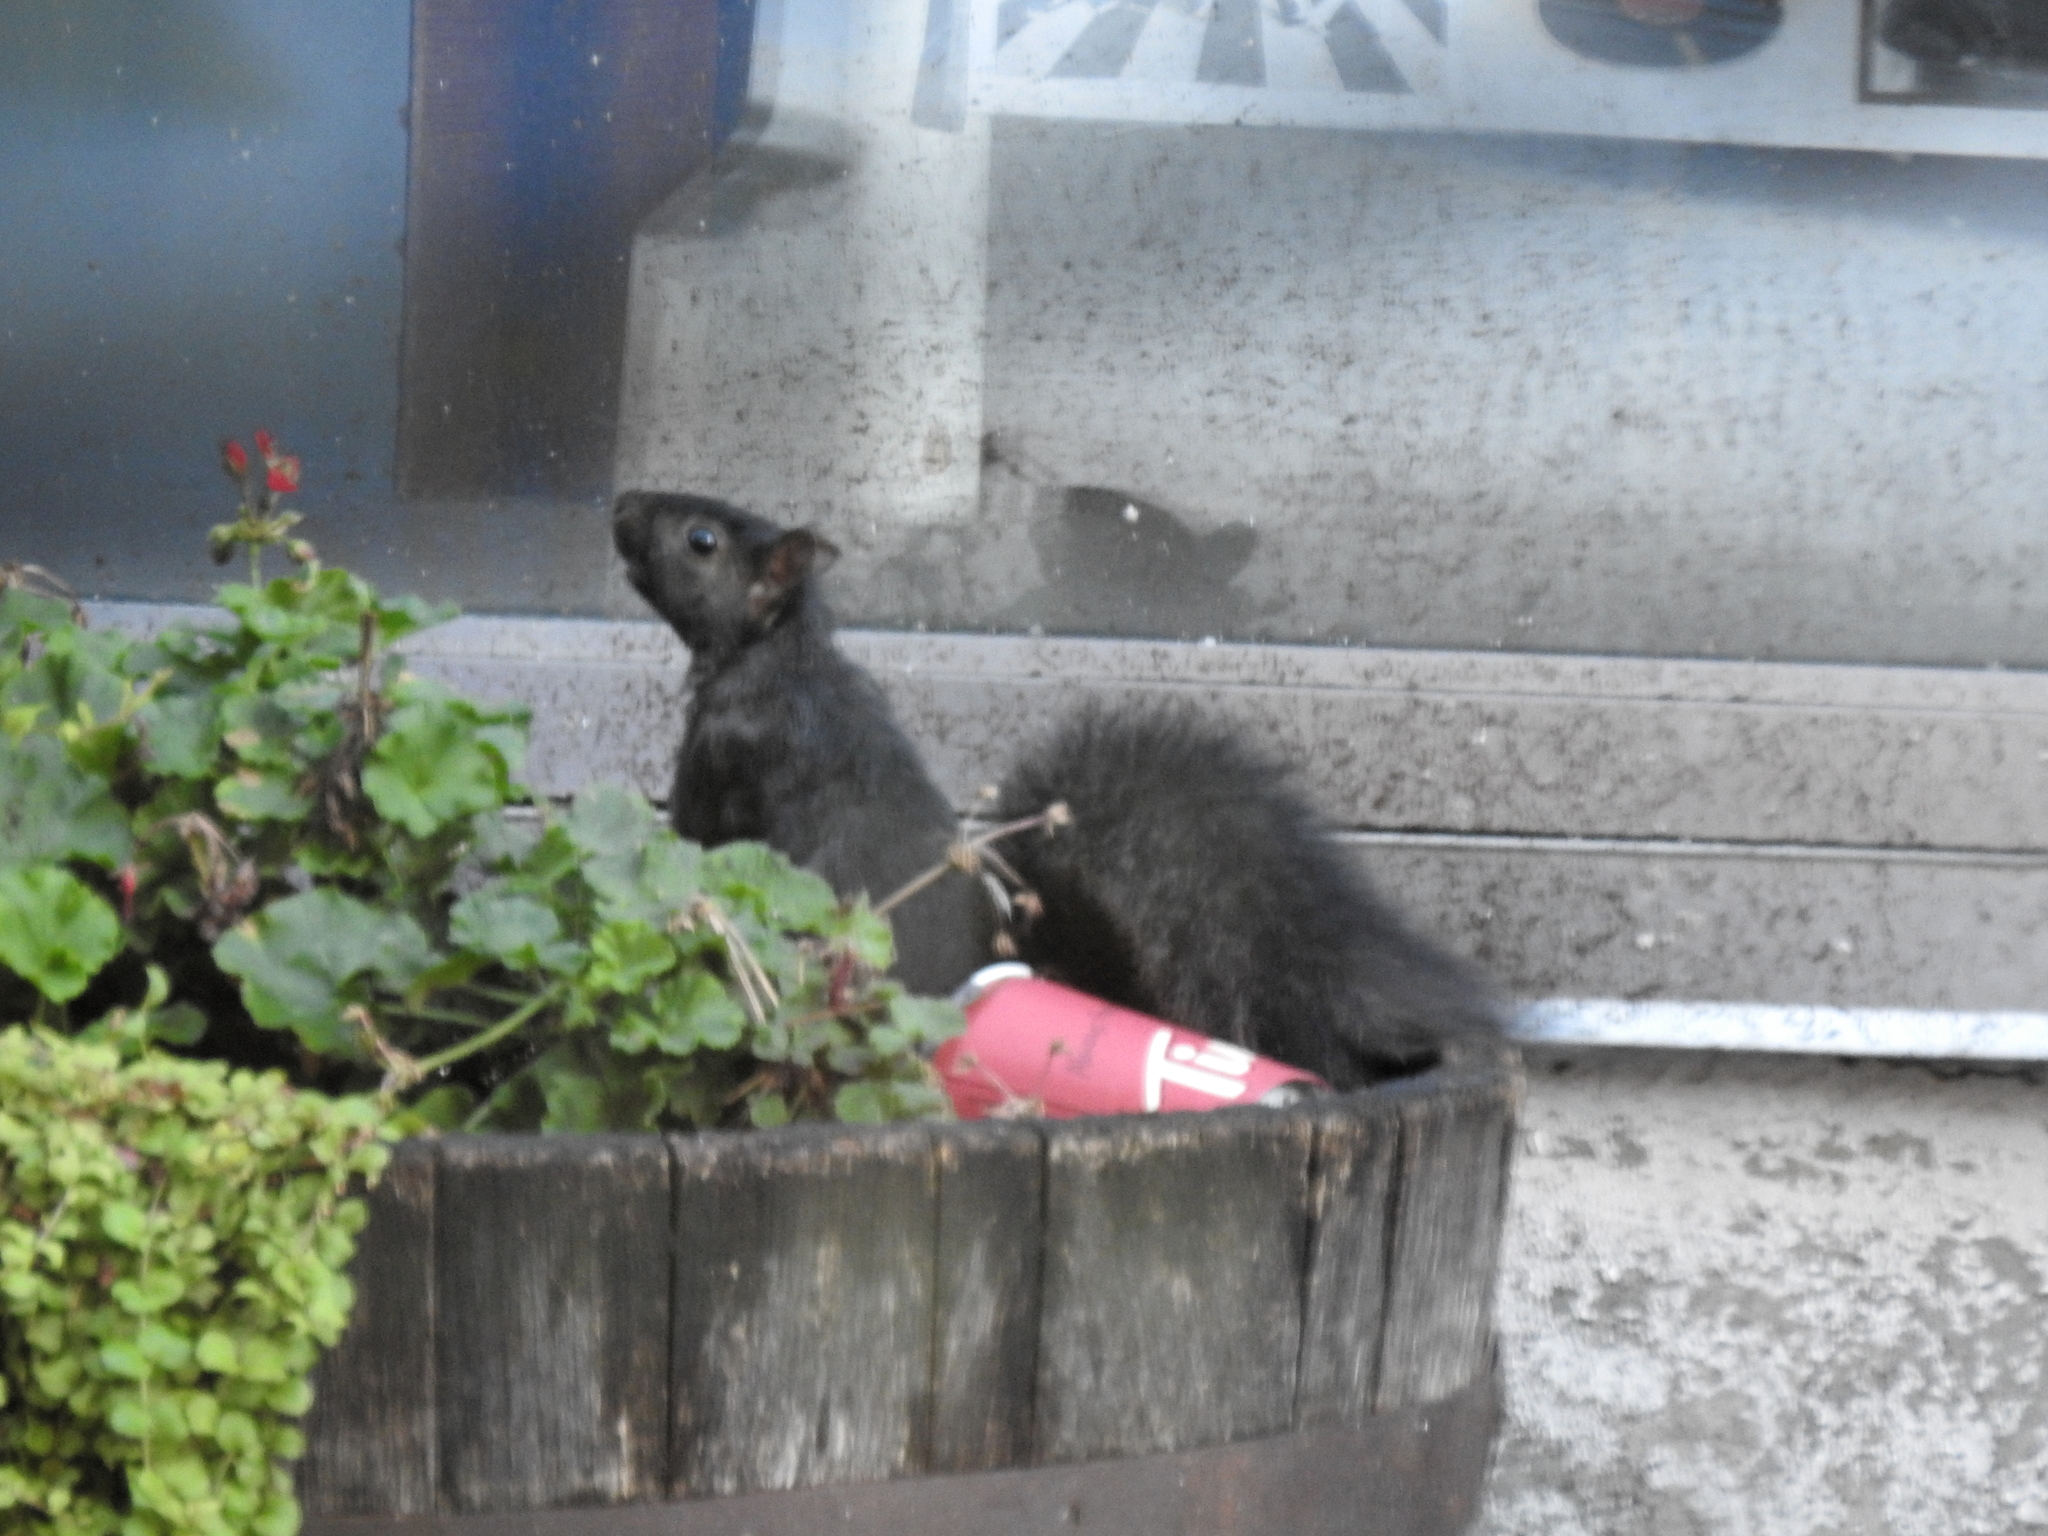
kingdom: Animalia
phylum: Chordata
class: Mammalia
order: Rodentia
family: Sciuridae
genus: Sciurus
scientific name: Sciurus carolinensis
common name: Eastern gray squirrel
